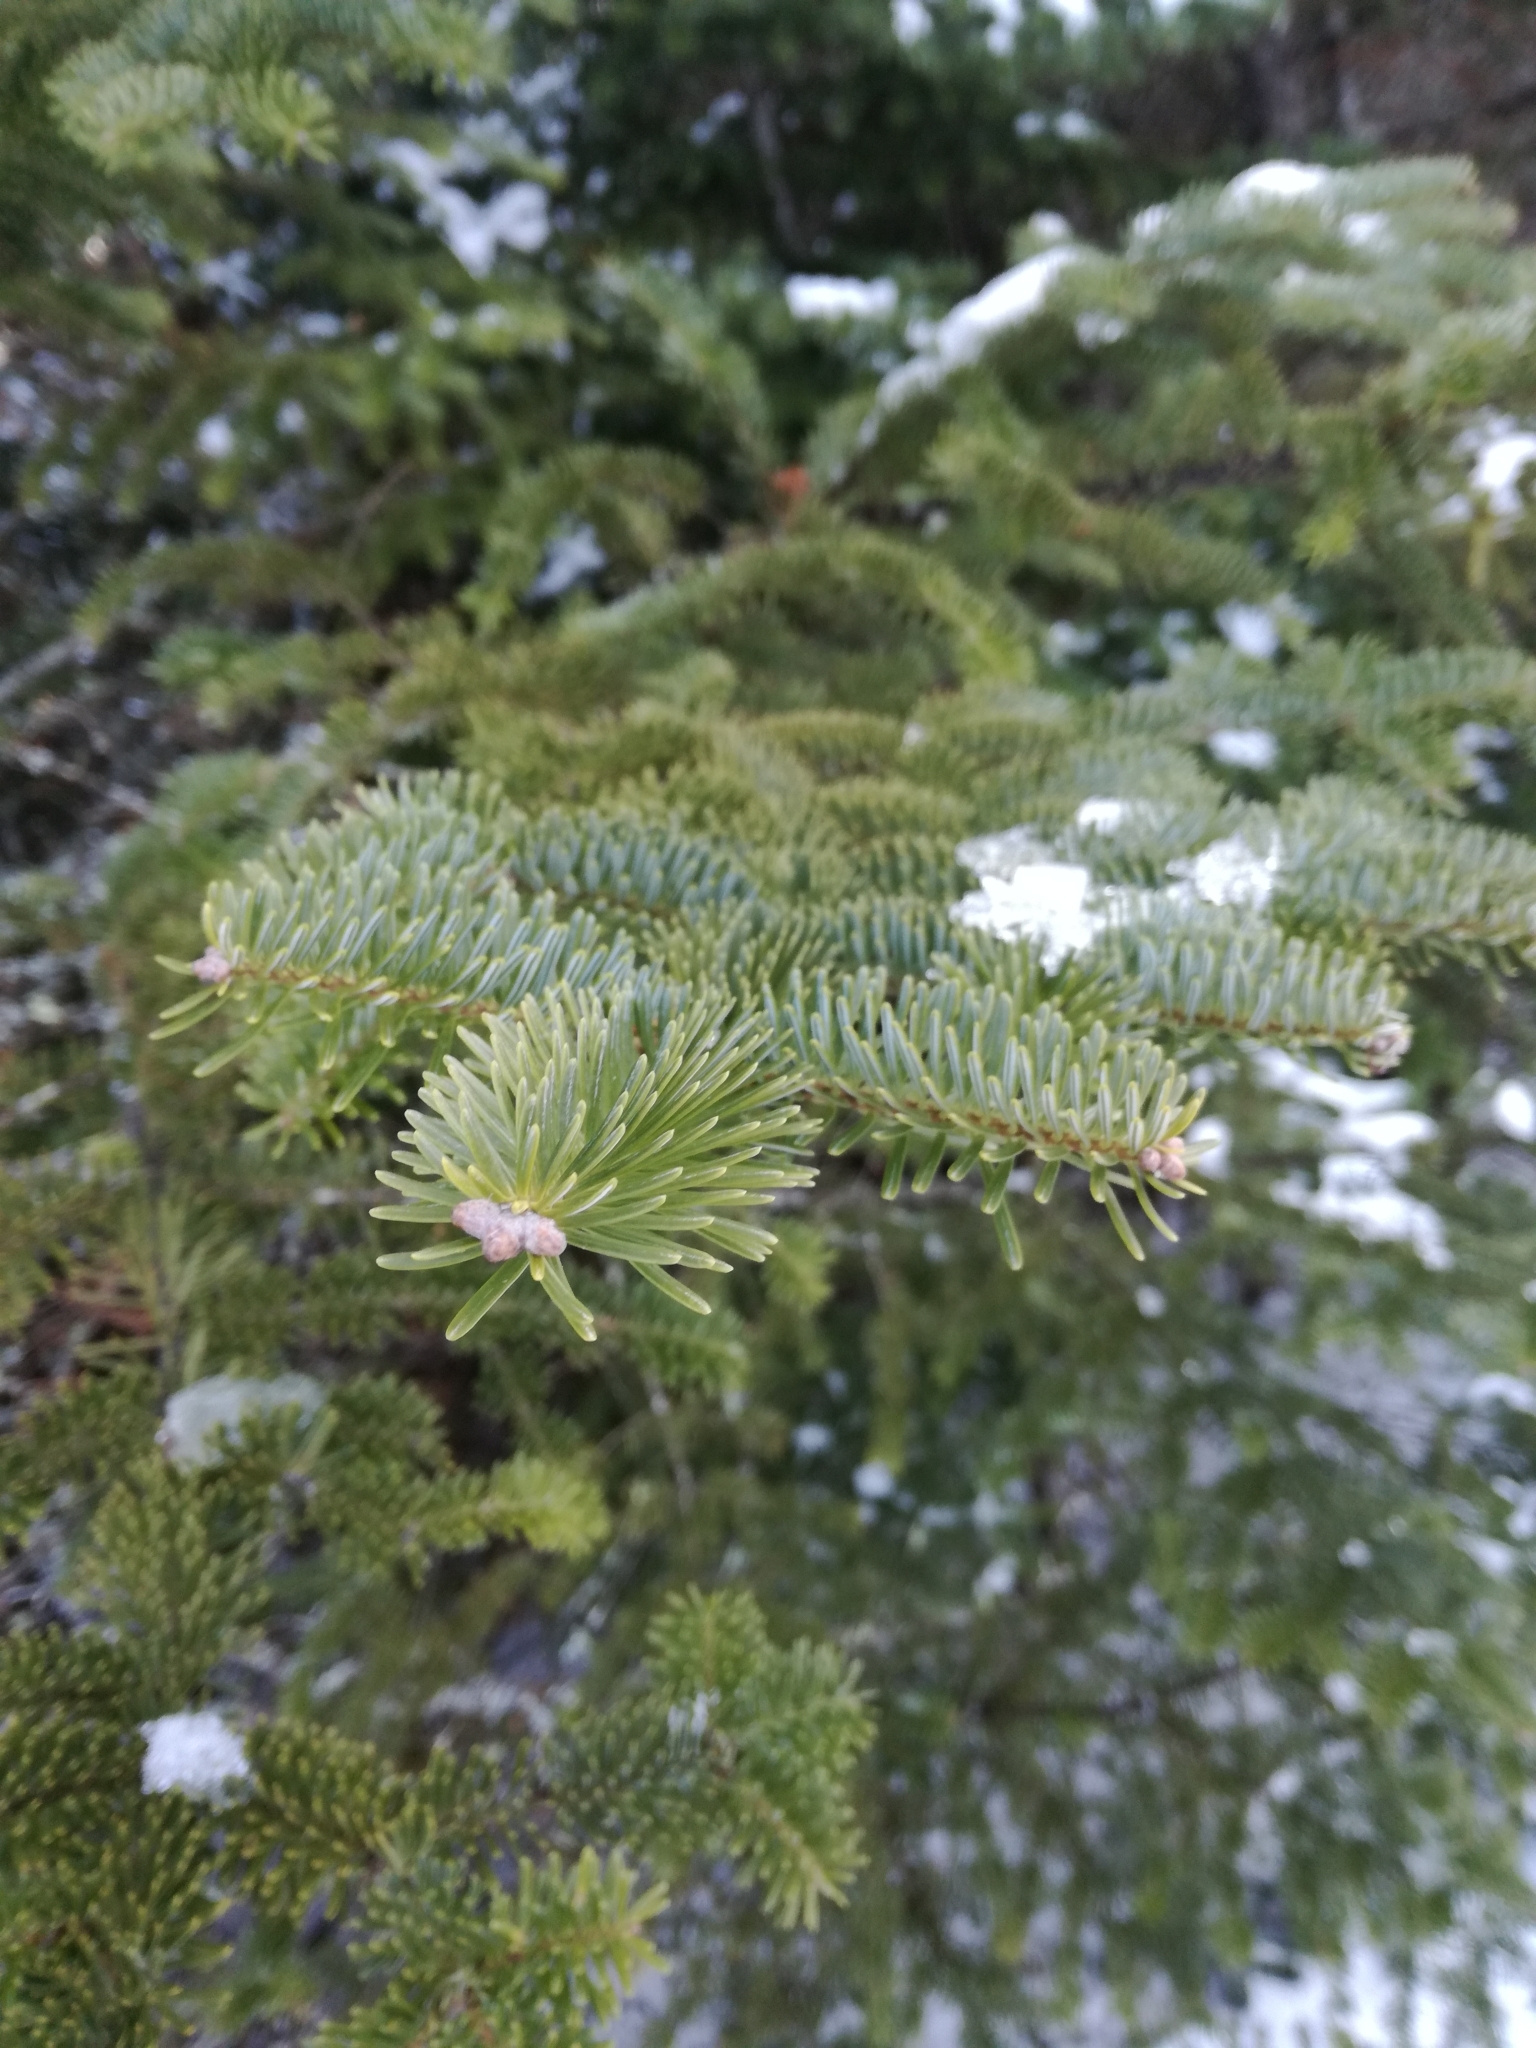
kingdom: Plantae
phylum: Tracheophyta
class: Pinopsida
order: Pinales
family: Pinaceae
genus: Abies
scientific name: Abies balsamea
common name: Balsam fir
